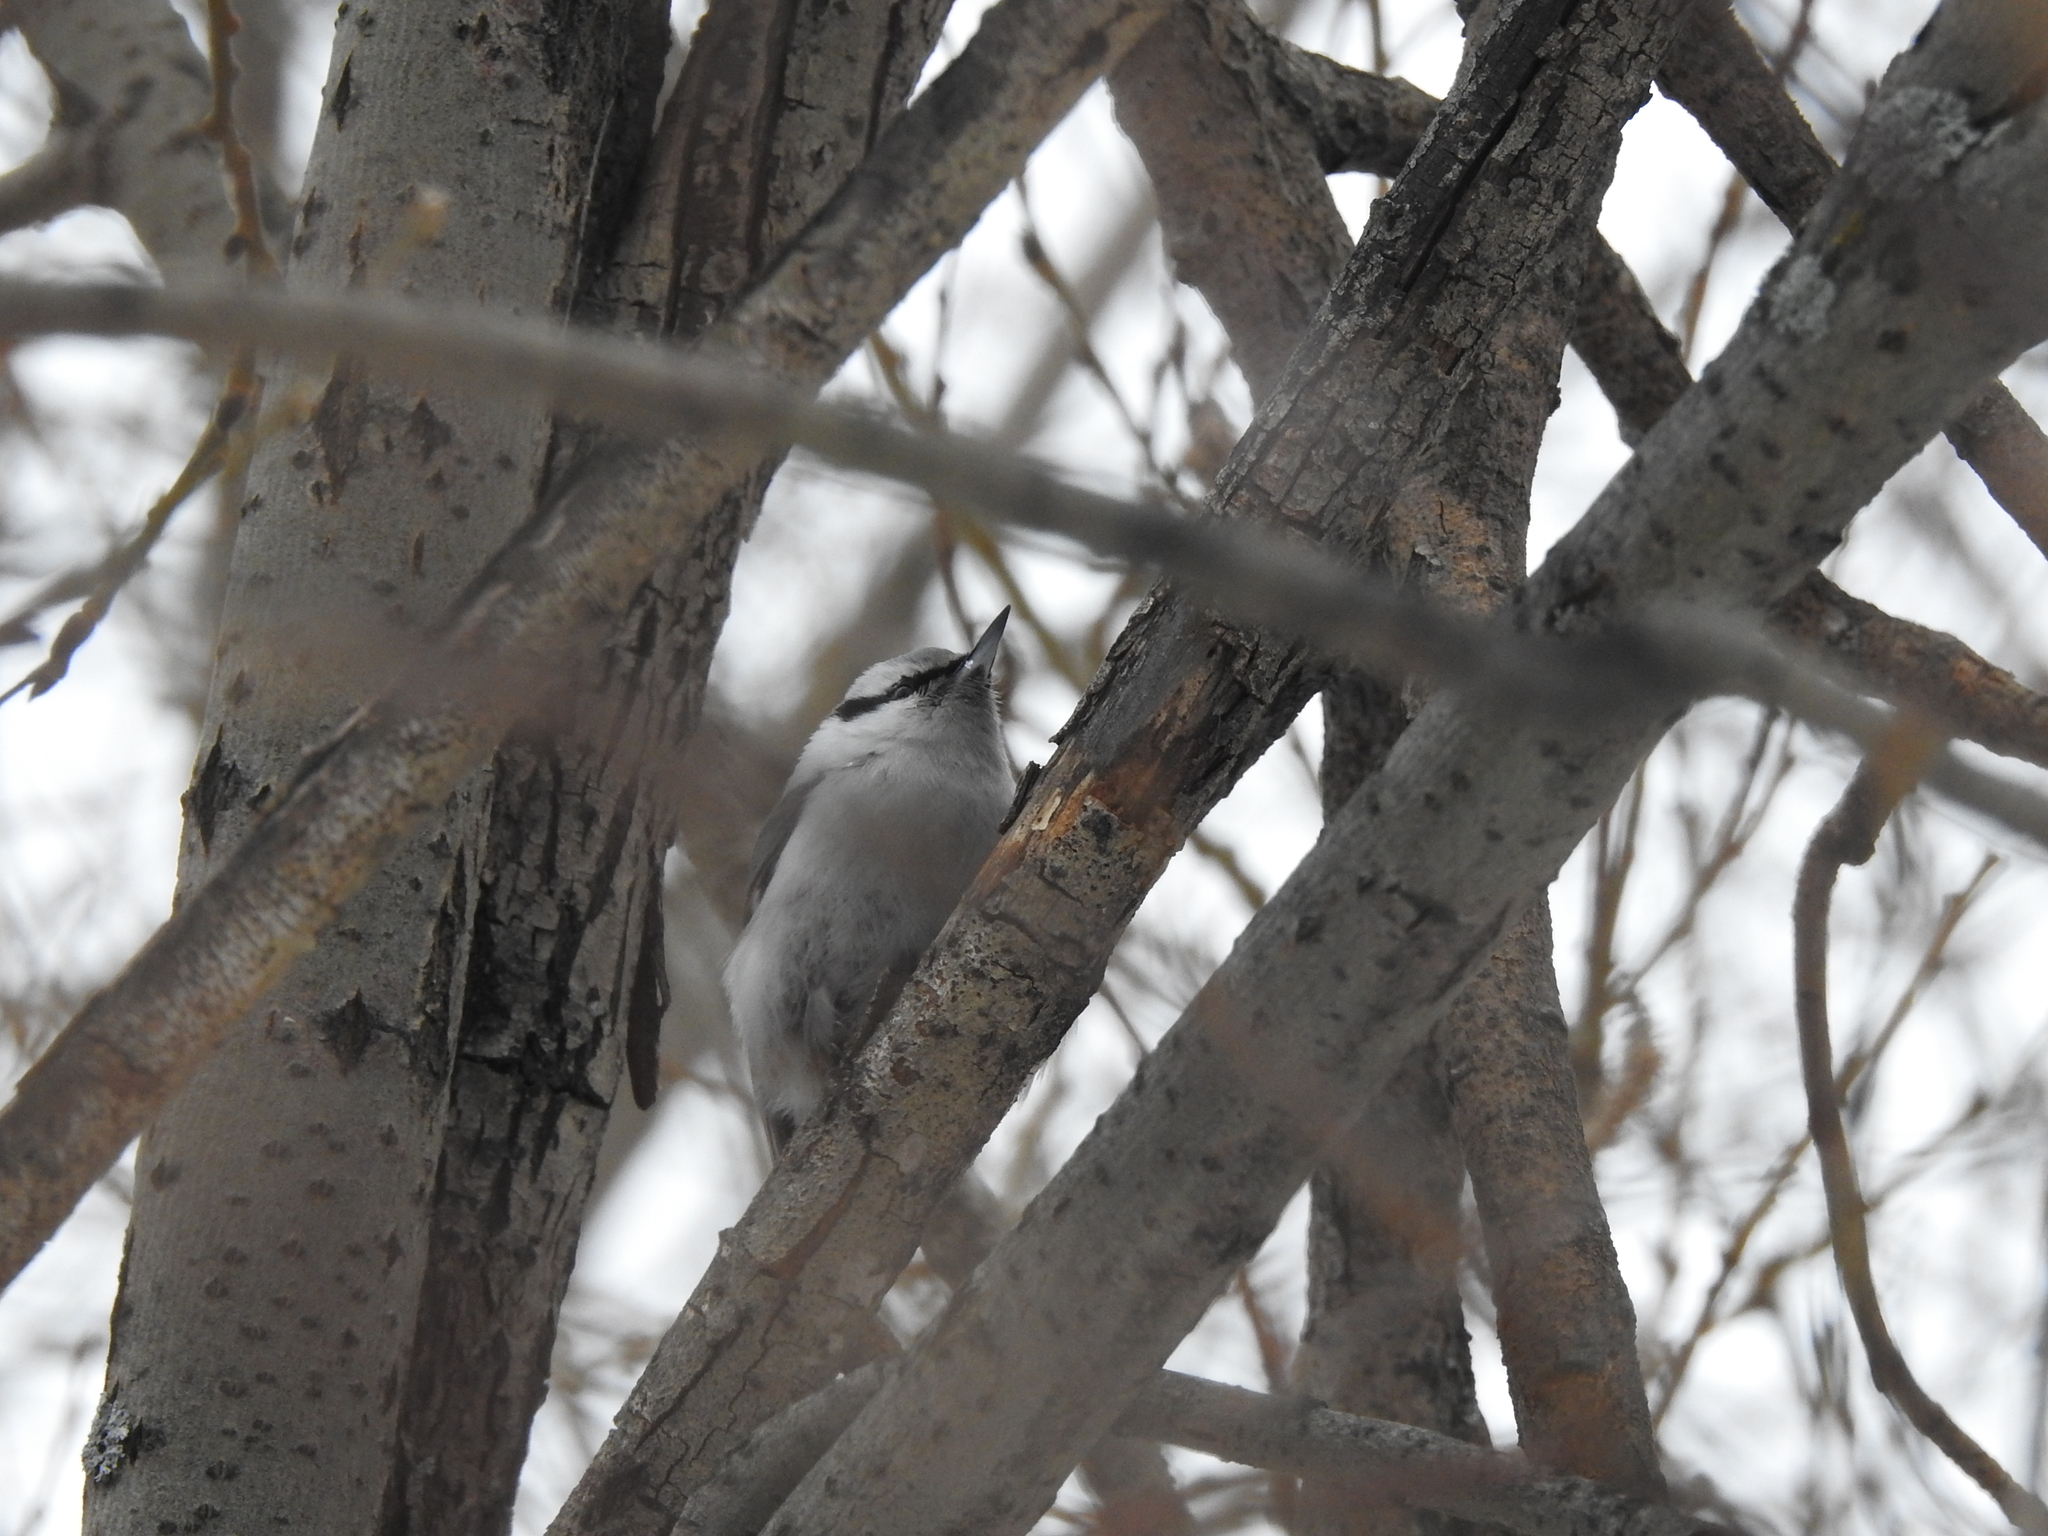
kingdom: Animalia
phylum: Chordata
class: Aves
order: Passeriformes
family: Sittidae
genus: Sitta
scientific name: Sitta europaea
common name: Eurasian nuthatch
